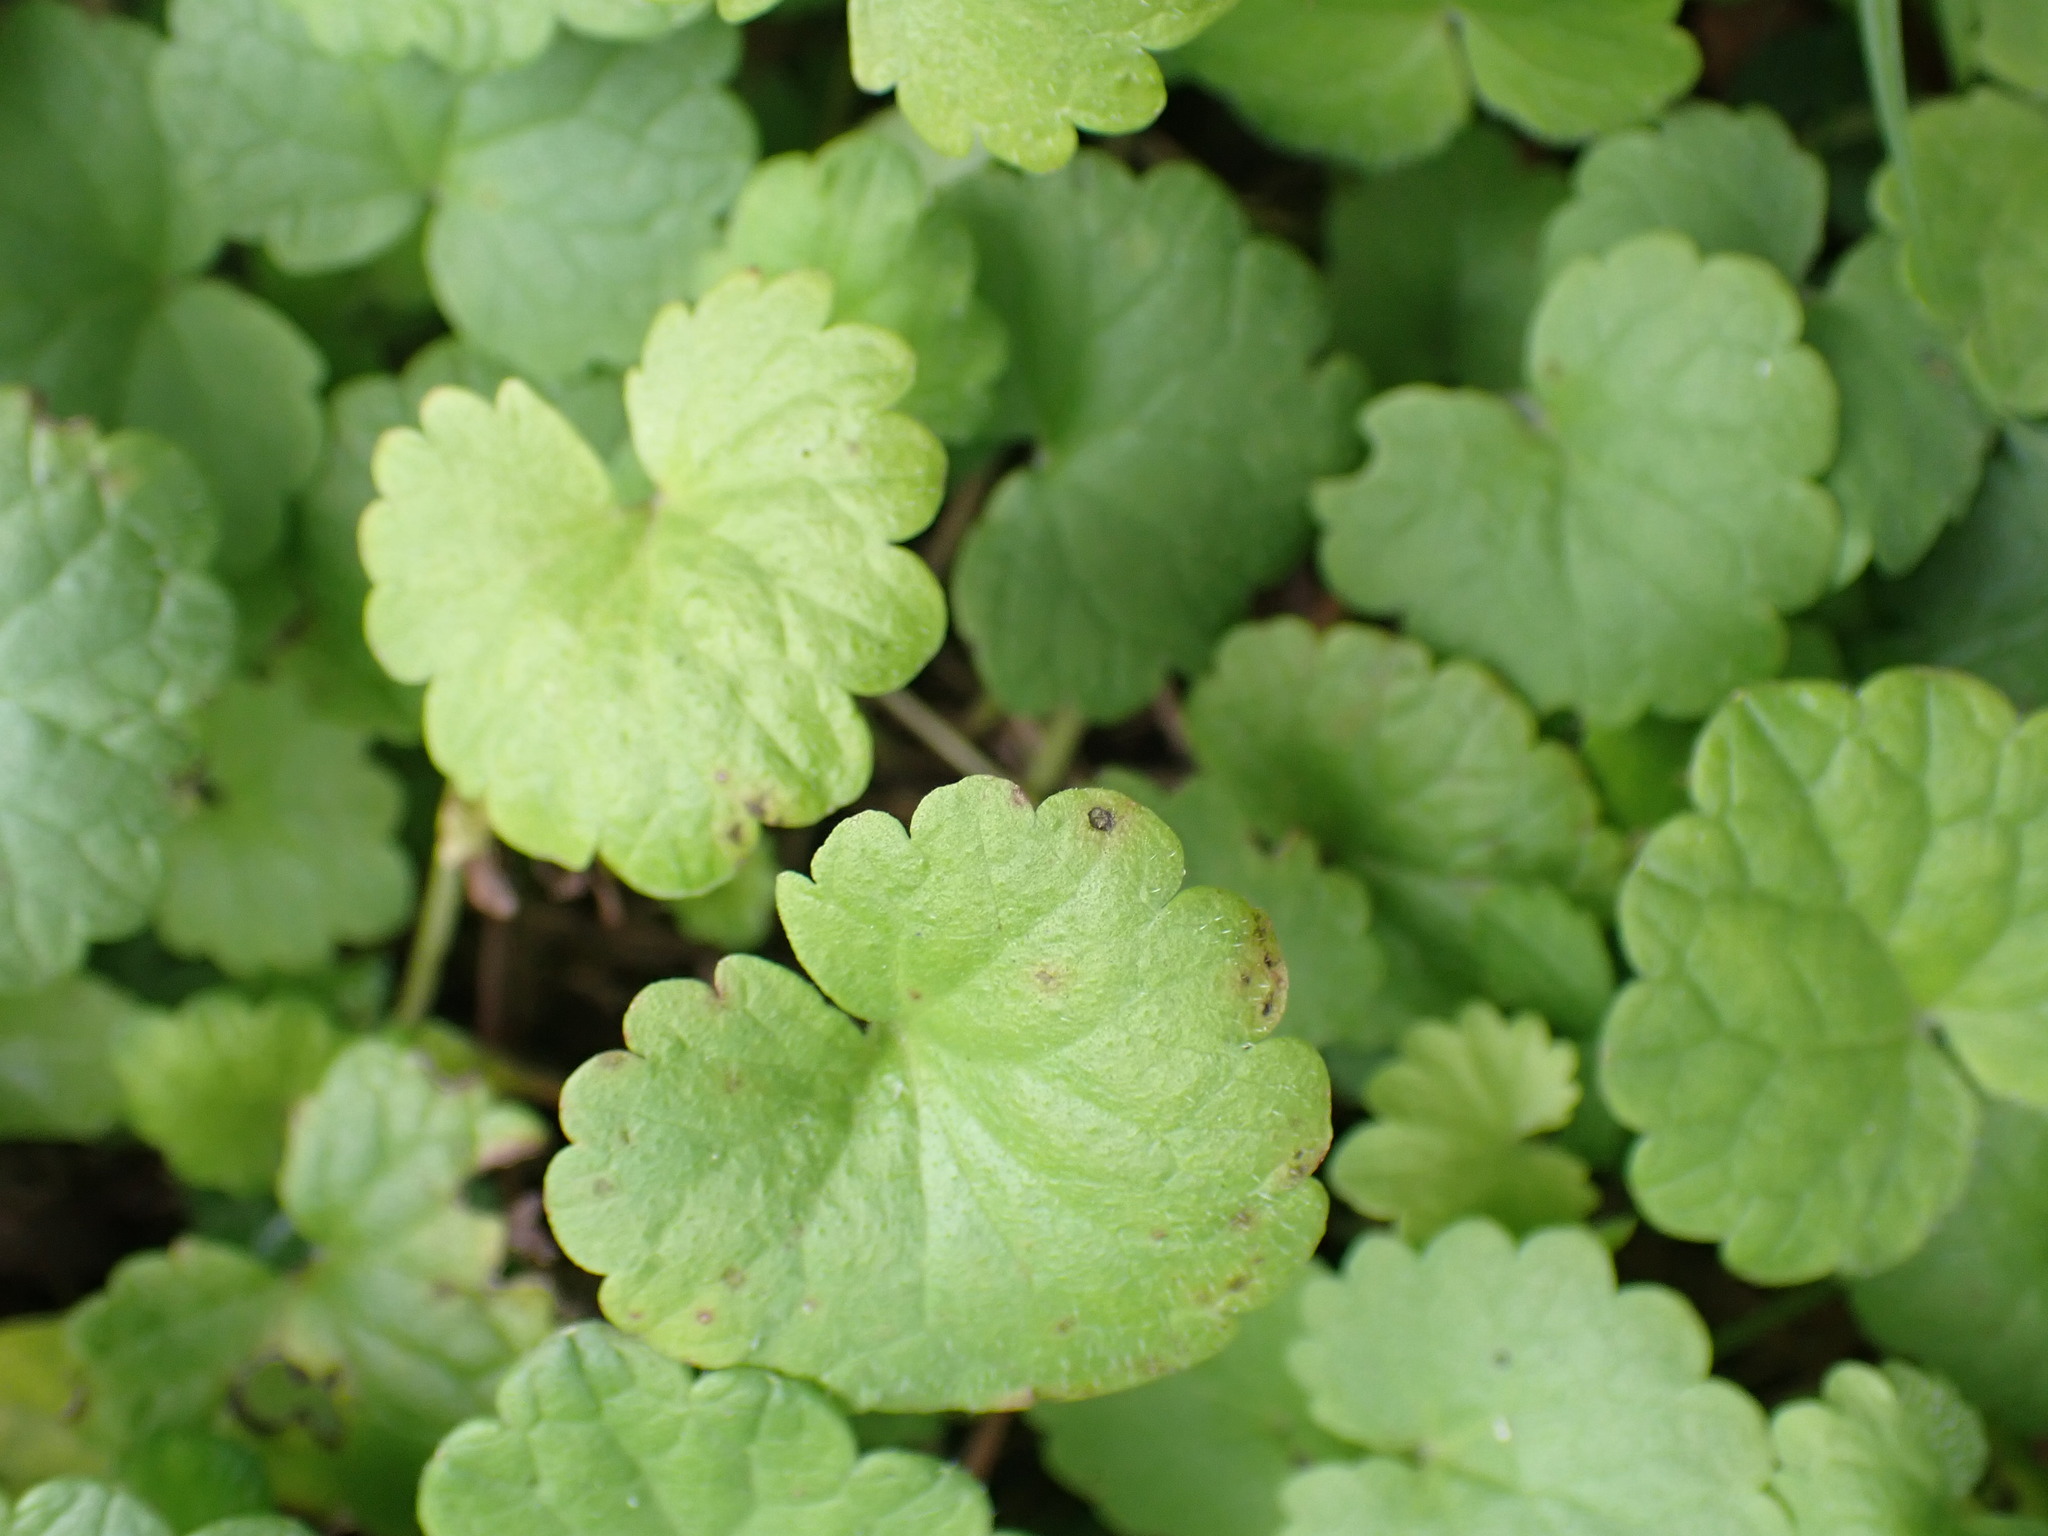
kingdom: Plantae
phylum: Tracheophyta
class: Magnoliopsida
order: Lamiales
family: Lamiaceae
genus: Glechoma
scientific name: Glechoma hederacea
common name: Ground ivy
